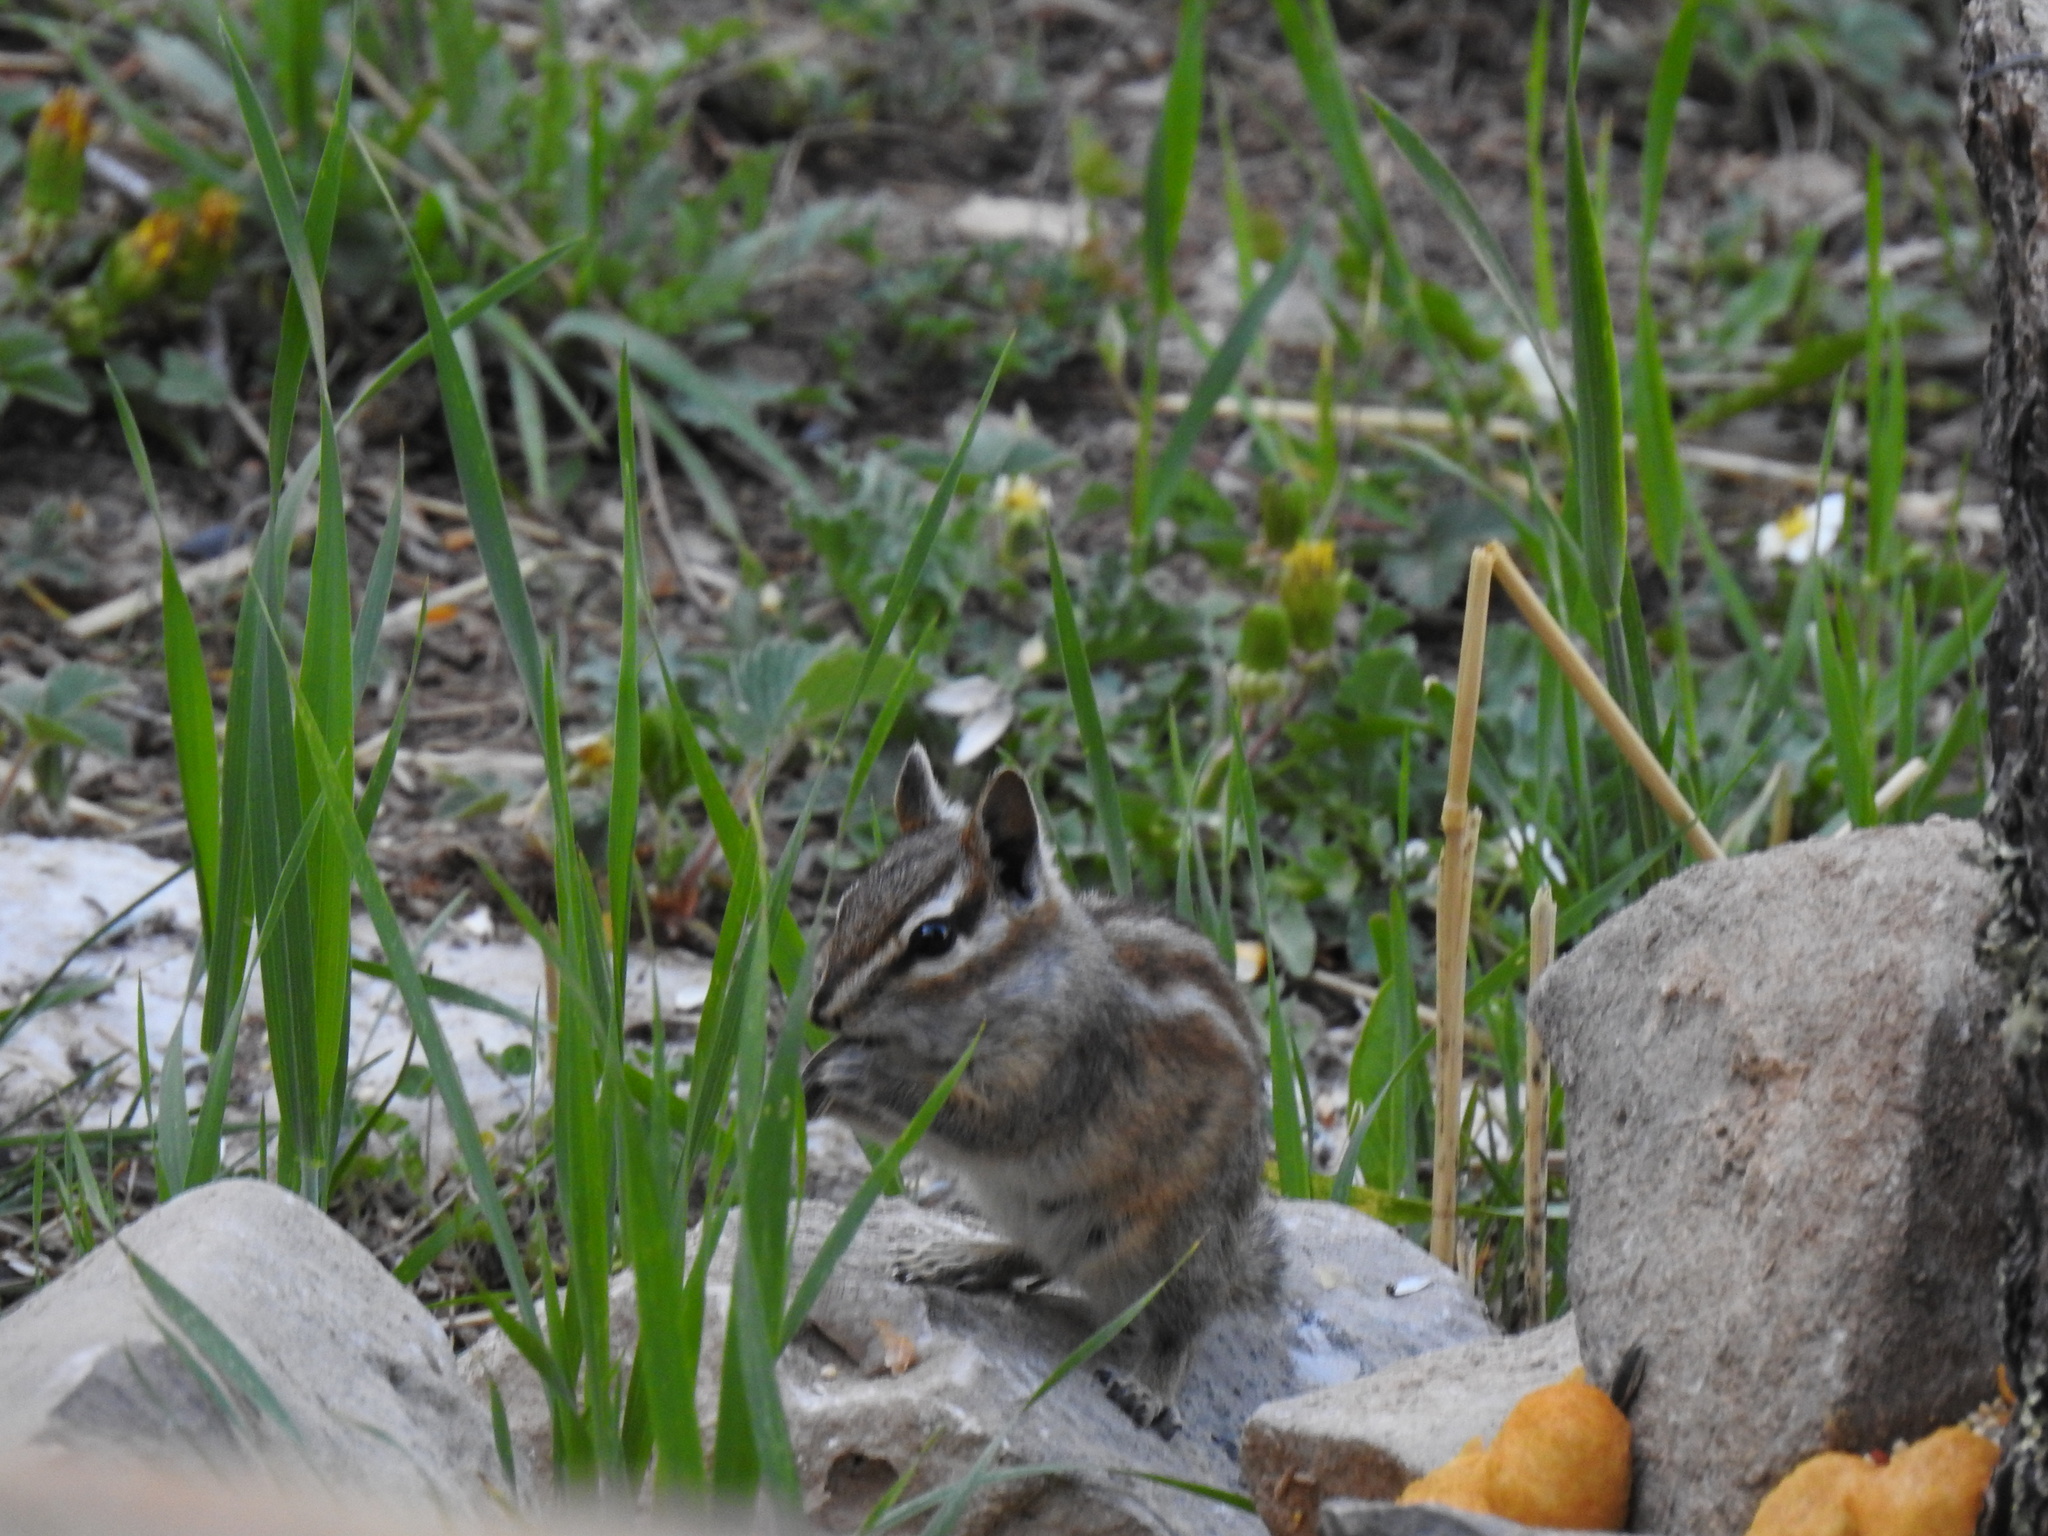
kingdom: Animalia
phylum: Chordata
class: Mammalia
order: Rodentia
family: Sciuridae
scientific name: Sciuridae
